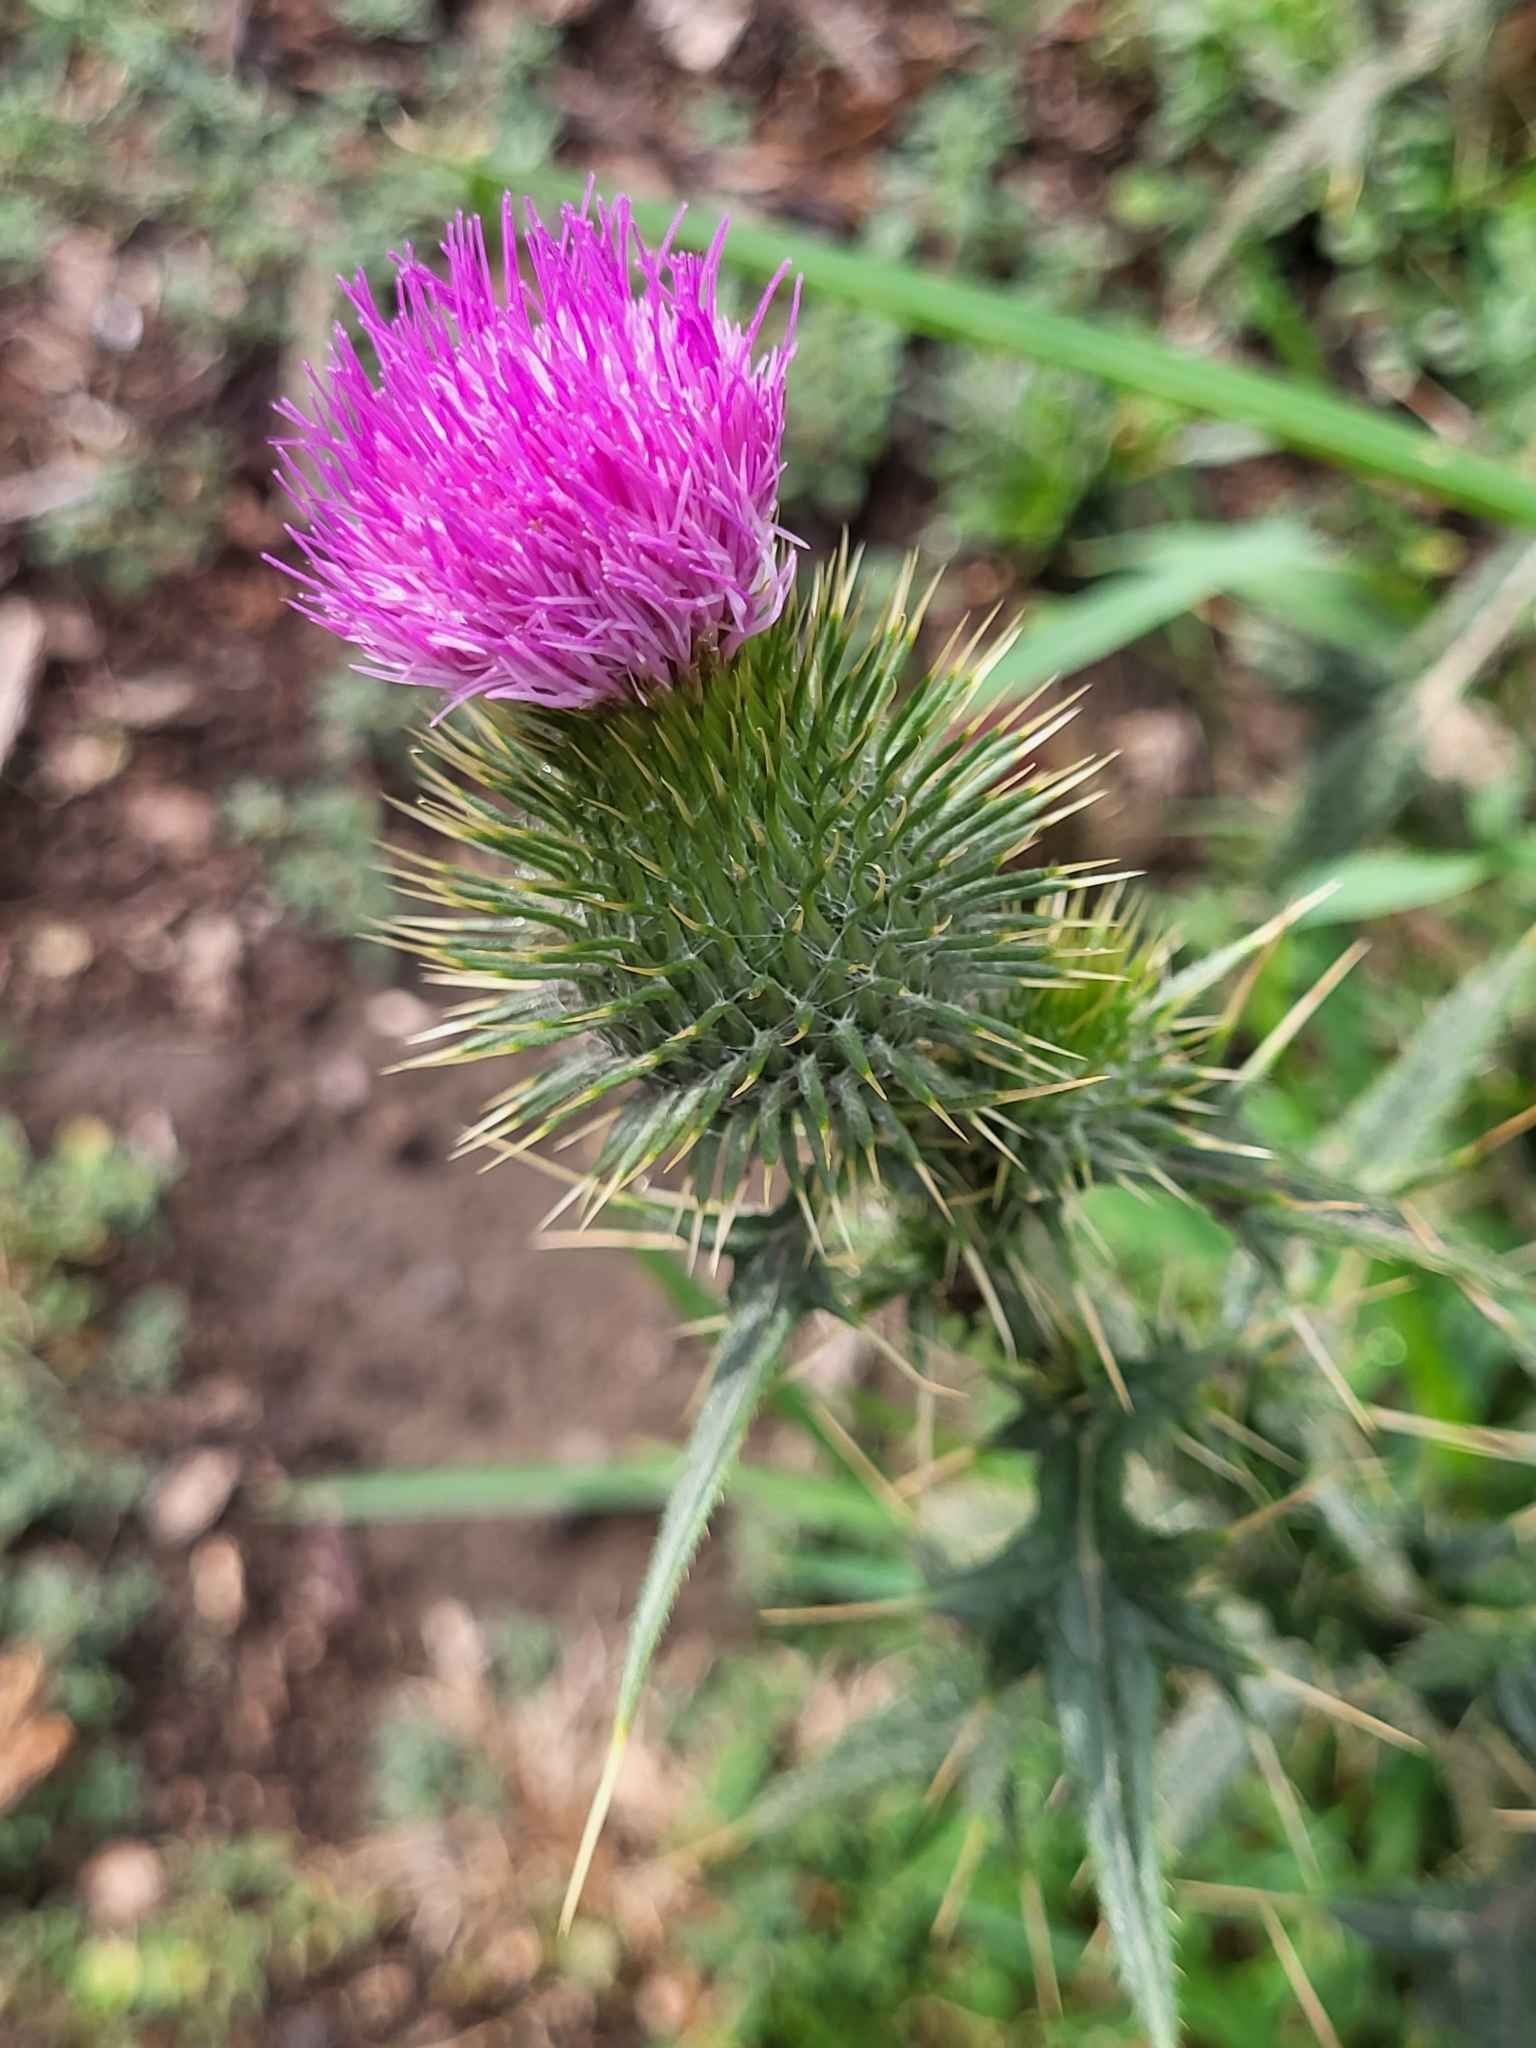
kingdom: Plantae
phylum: Tracheophyta
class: Magnoliopsida
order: Asterales
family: Asteraceae
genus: Cirsium
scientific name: Cirsium vulgare
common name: Bull thistle
